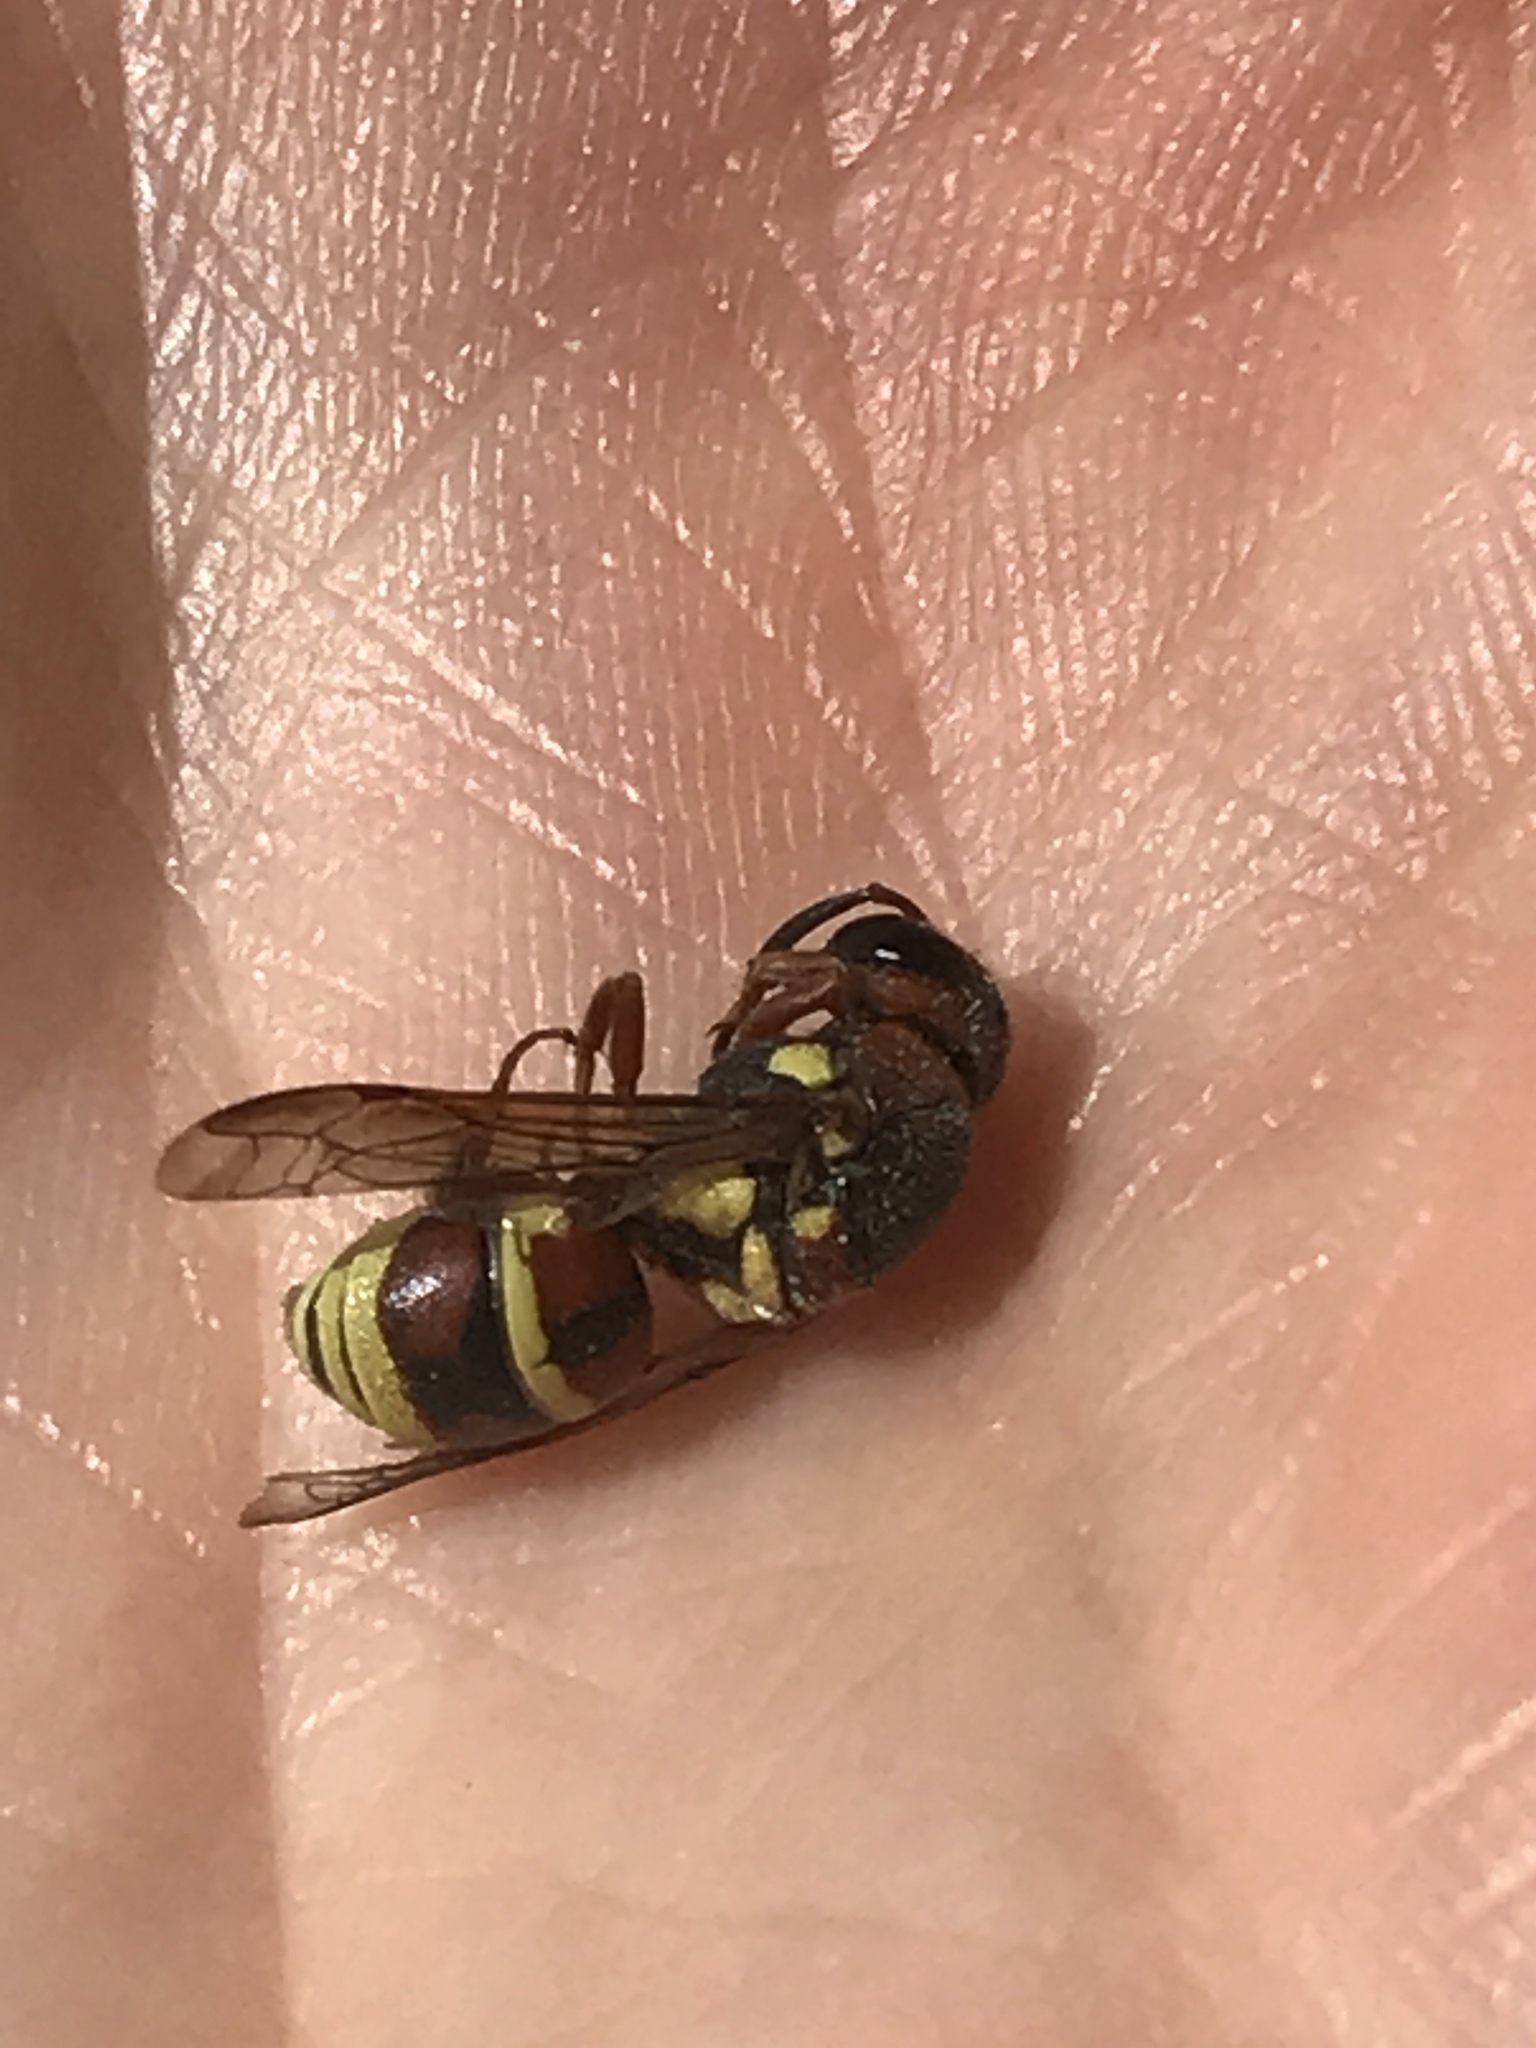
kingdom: Animalia
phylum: Arthropoda
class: Insecta
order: Hymenoptera
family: Eumenidae
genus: Euodynerus
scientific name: Euodynerus annulatus
